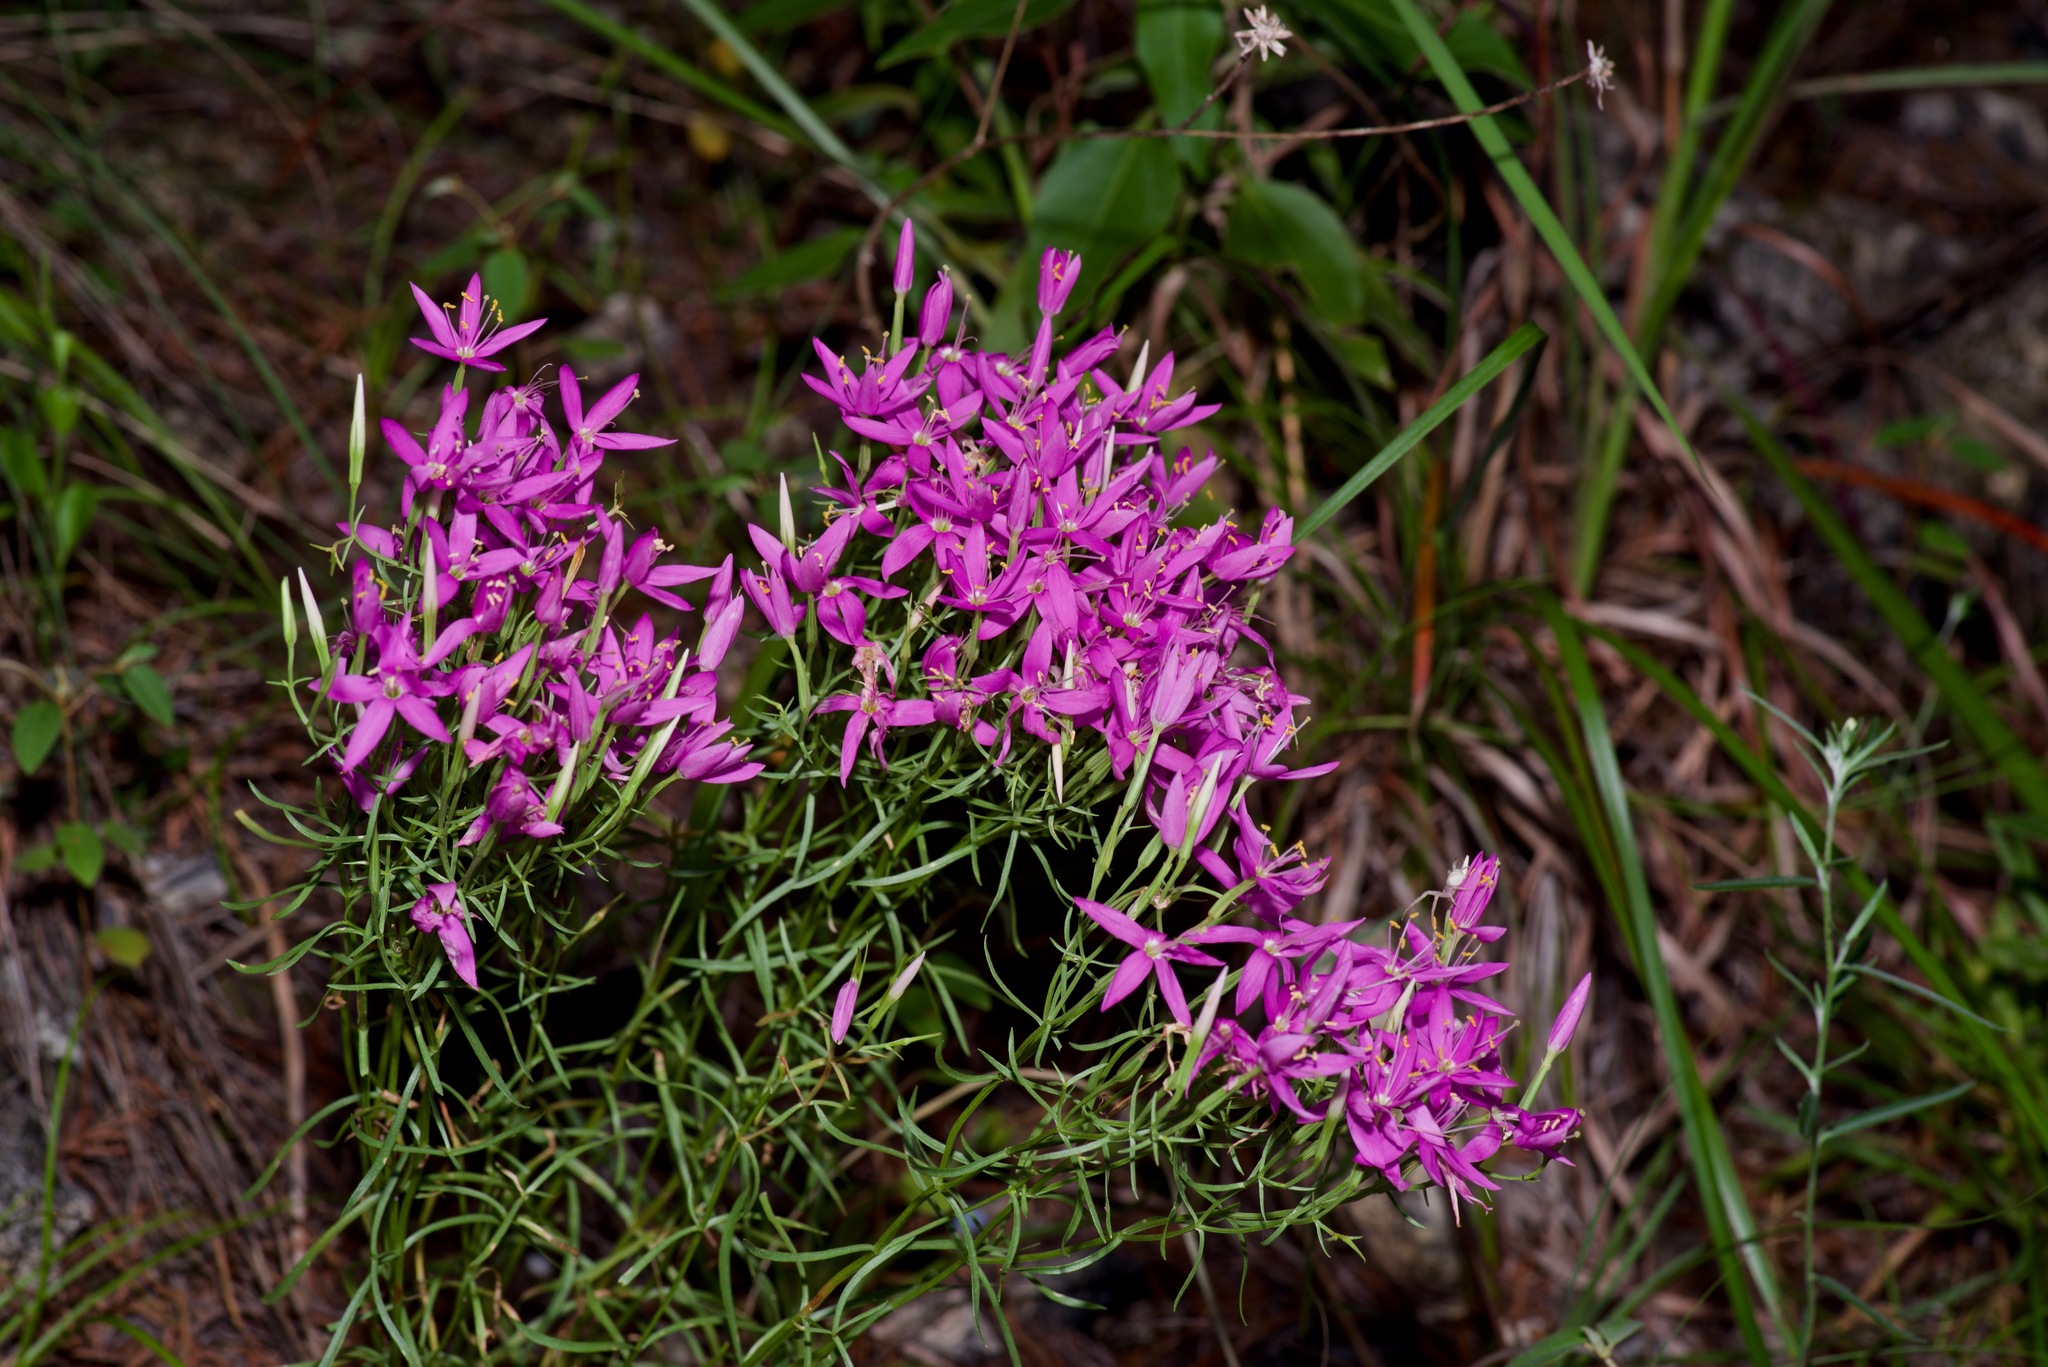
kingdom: Plantae
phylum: Tracheophyta
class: Magnoliopsida
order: Gentianales
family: Gentianaceae
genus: Zeltnera
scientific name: Zeltnera beyrichii
